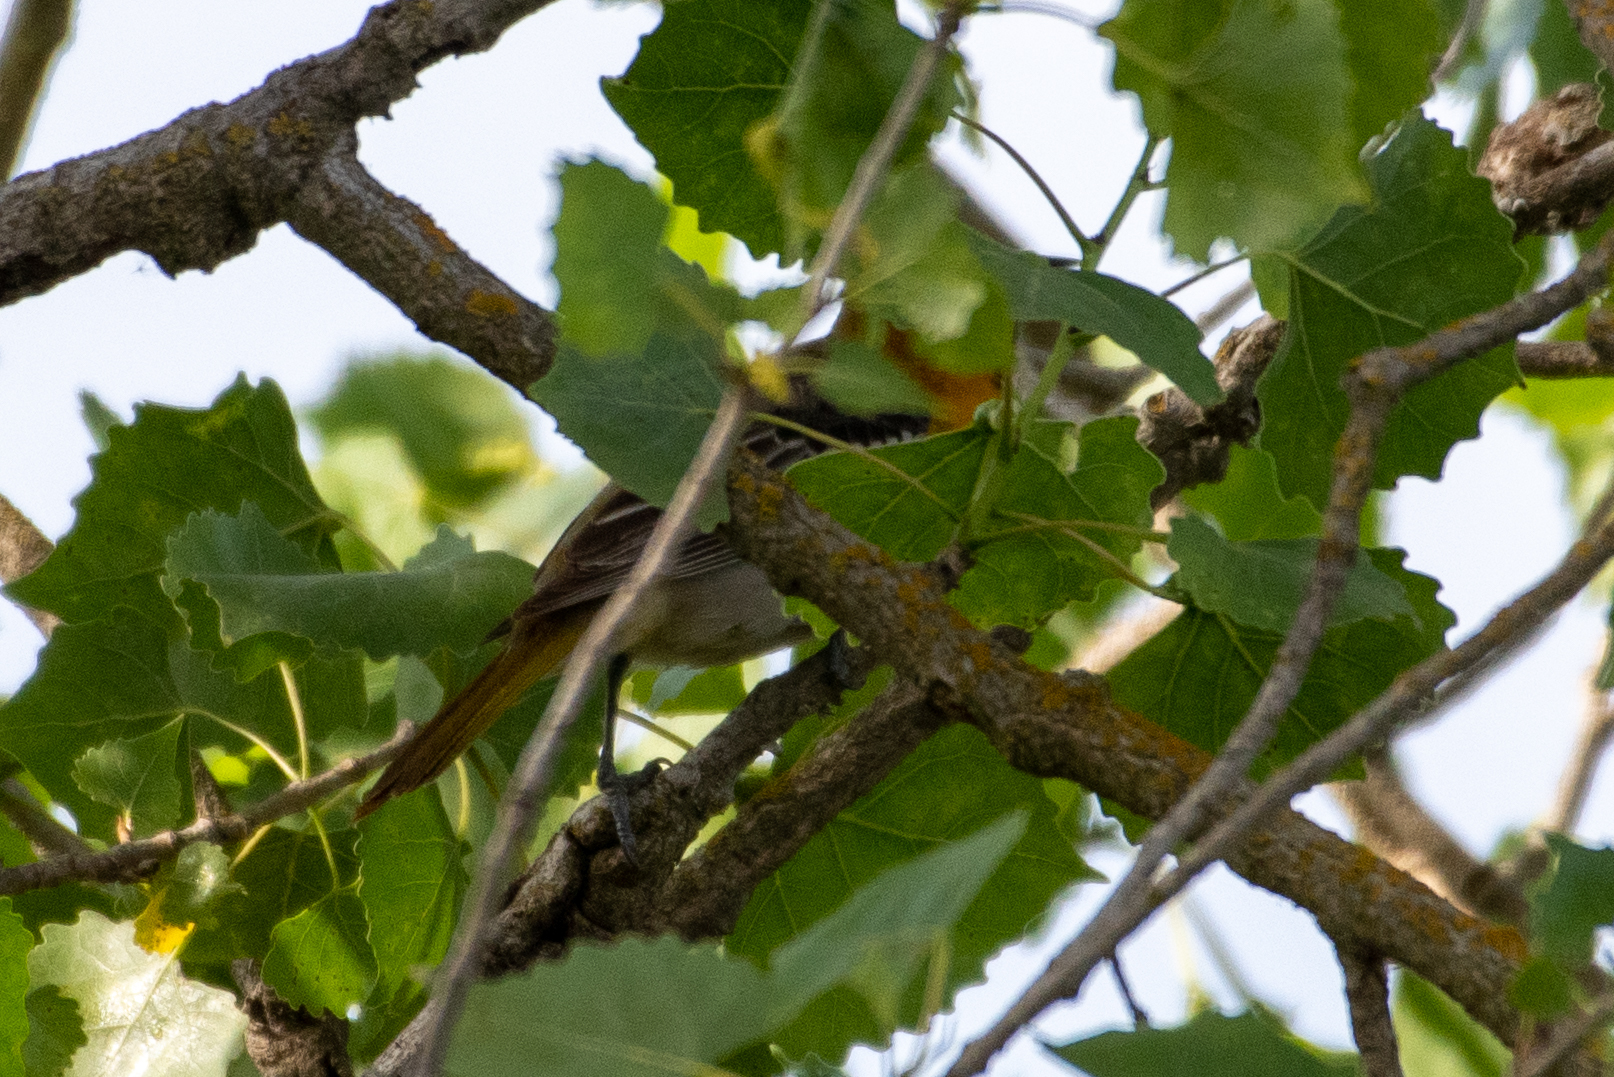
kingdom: Animalia
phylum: Chordata
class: Aves
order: Passeriformes
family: Icteridae
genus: Icterus
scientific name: Icterus bullockii
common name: Bullock's oriole
